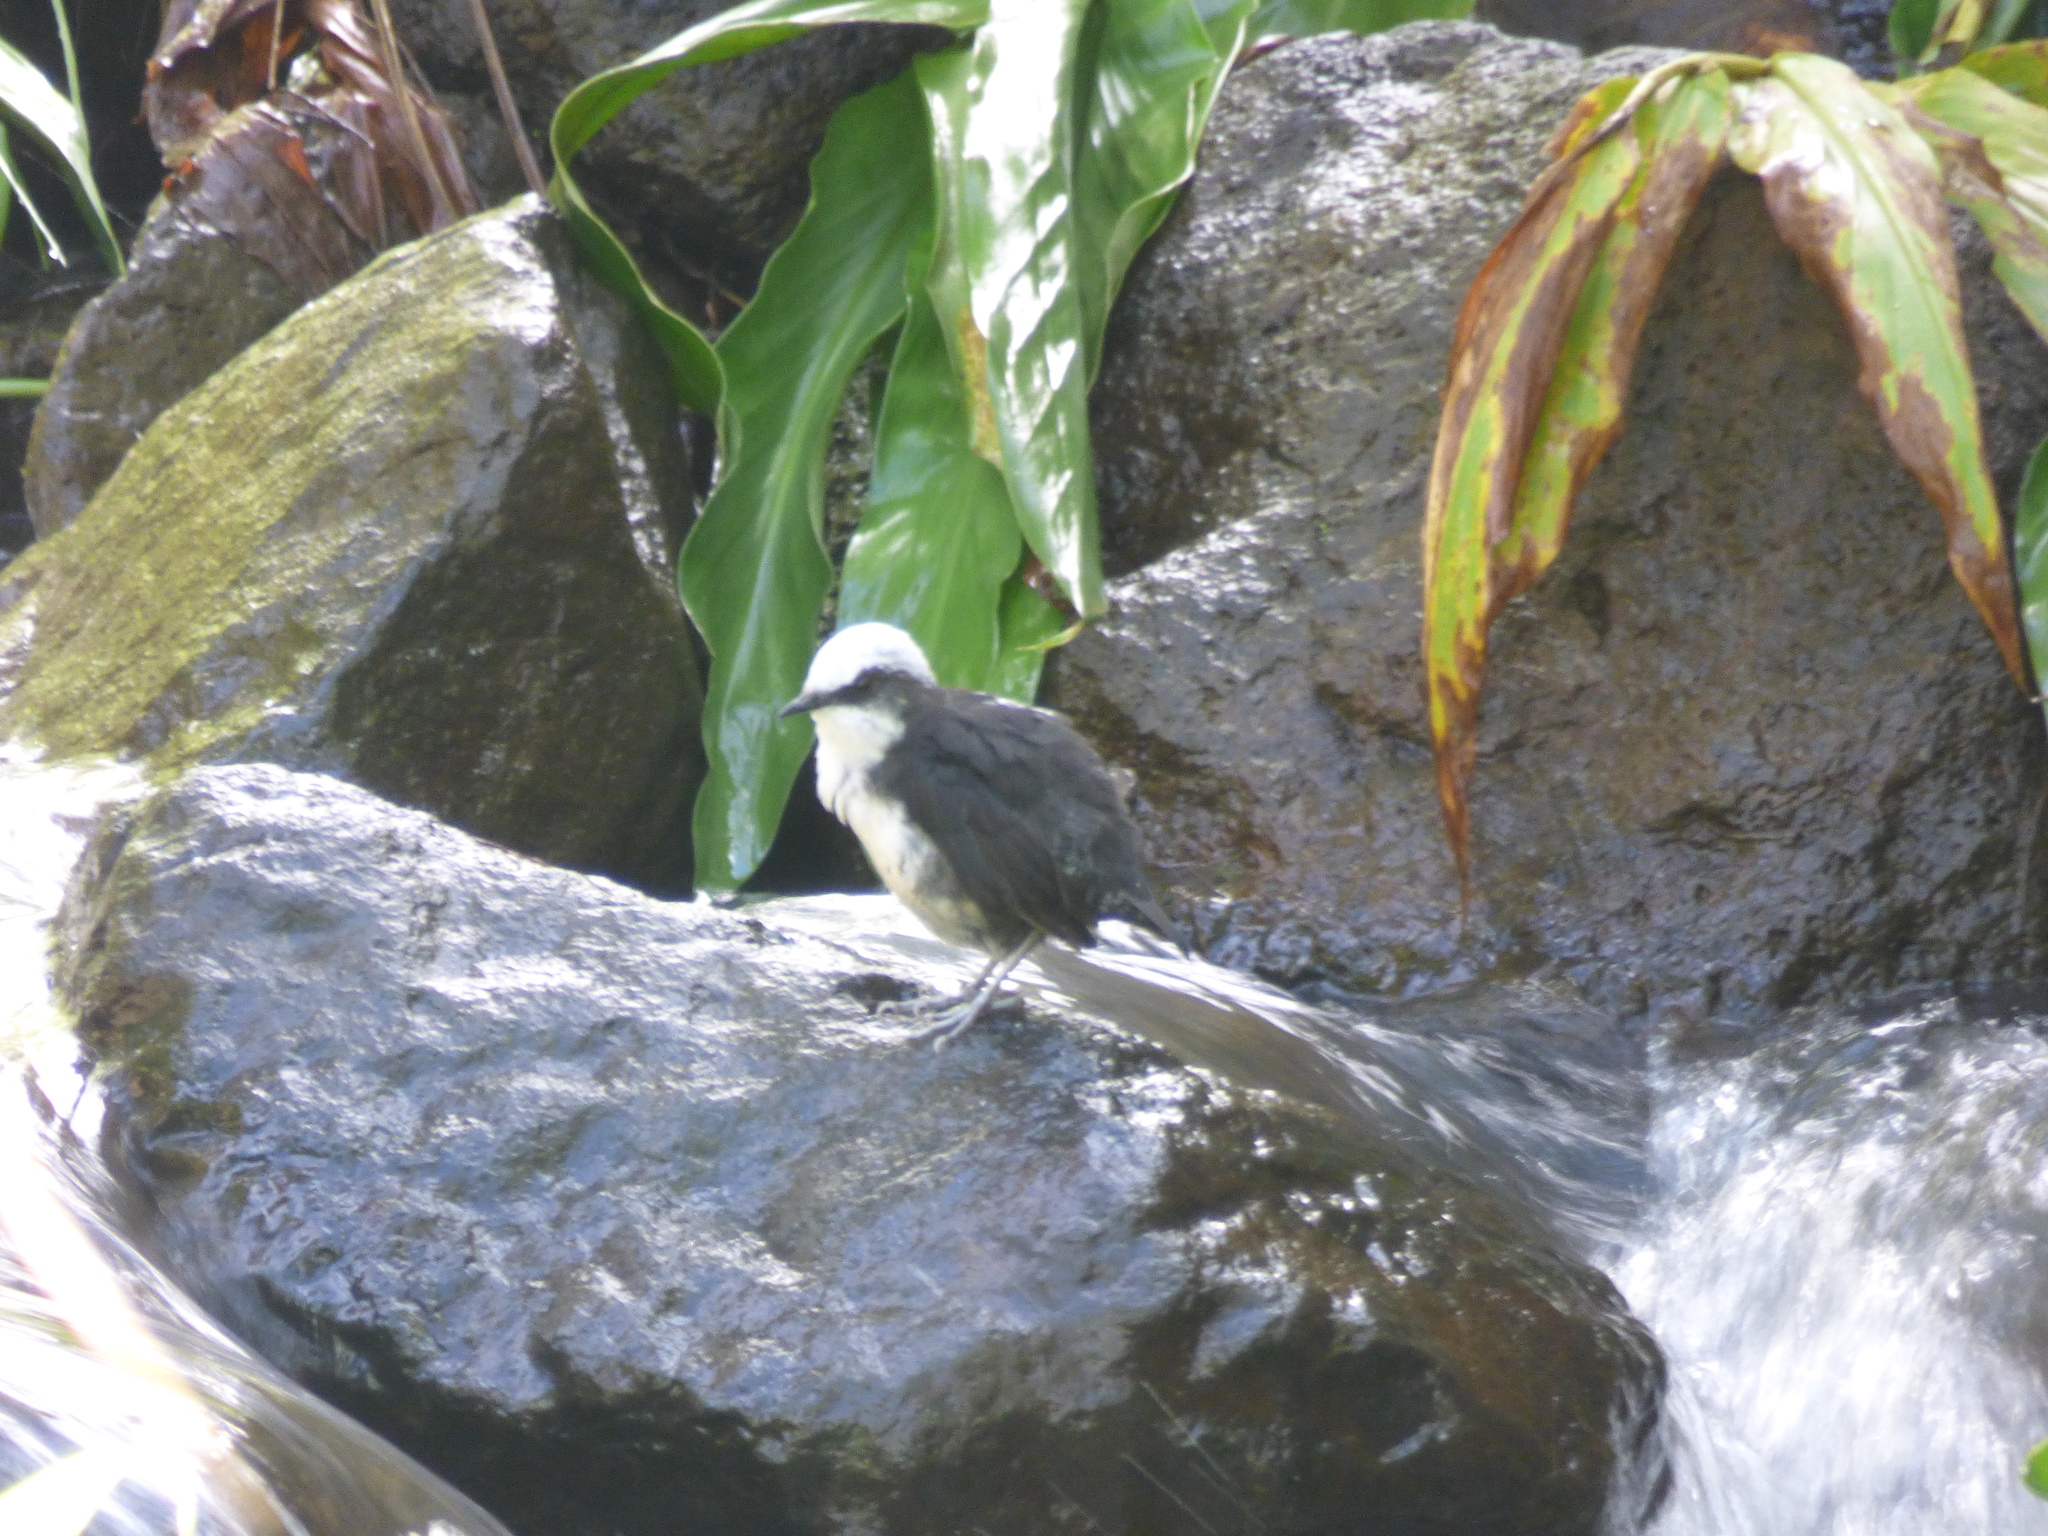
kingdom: Animalia
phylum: Chordata
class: Aves
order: Passeriformes
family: Cinclidae
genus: Cinclus
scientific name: Cinclus leucocephalus
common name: White-capped dipper
